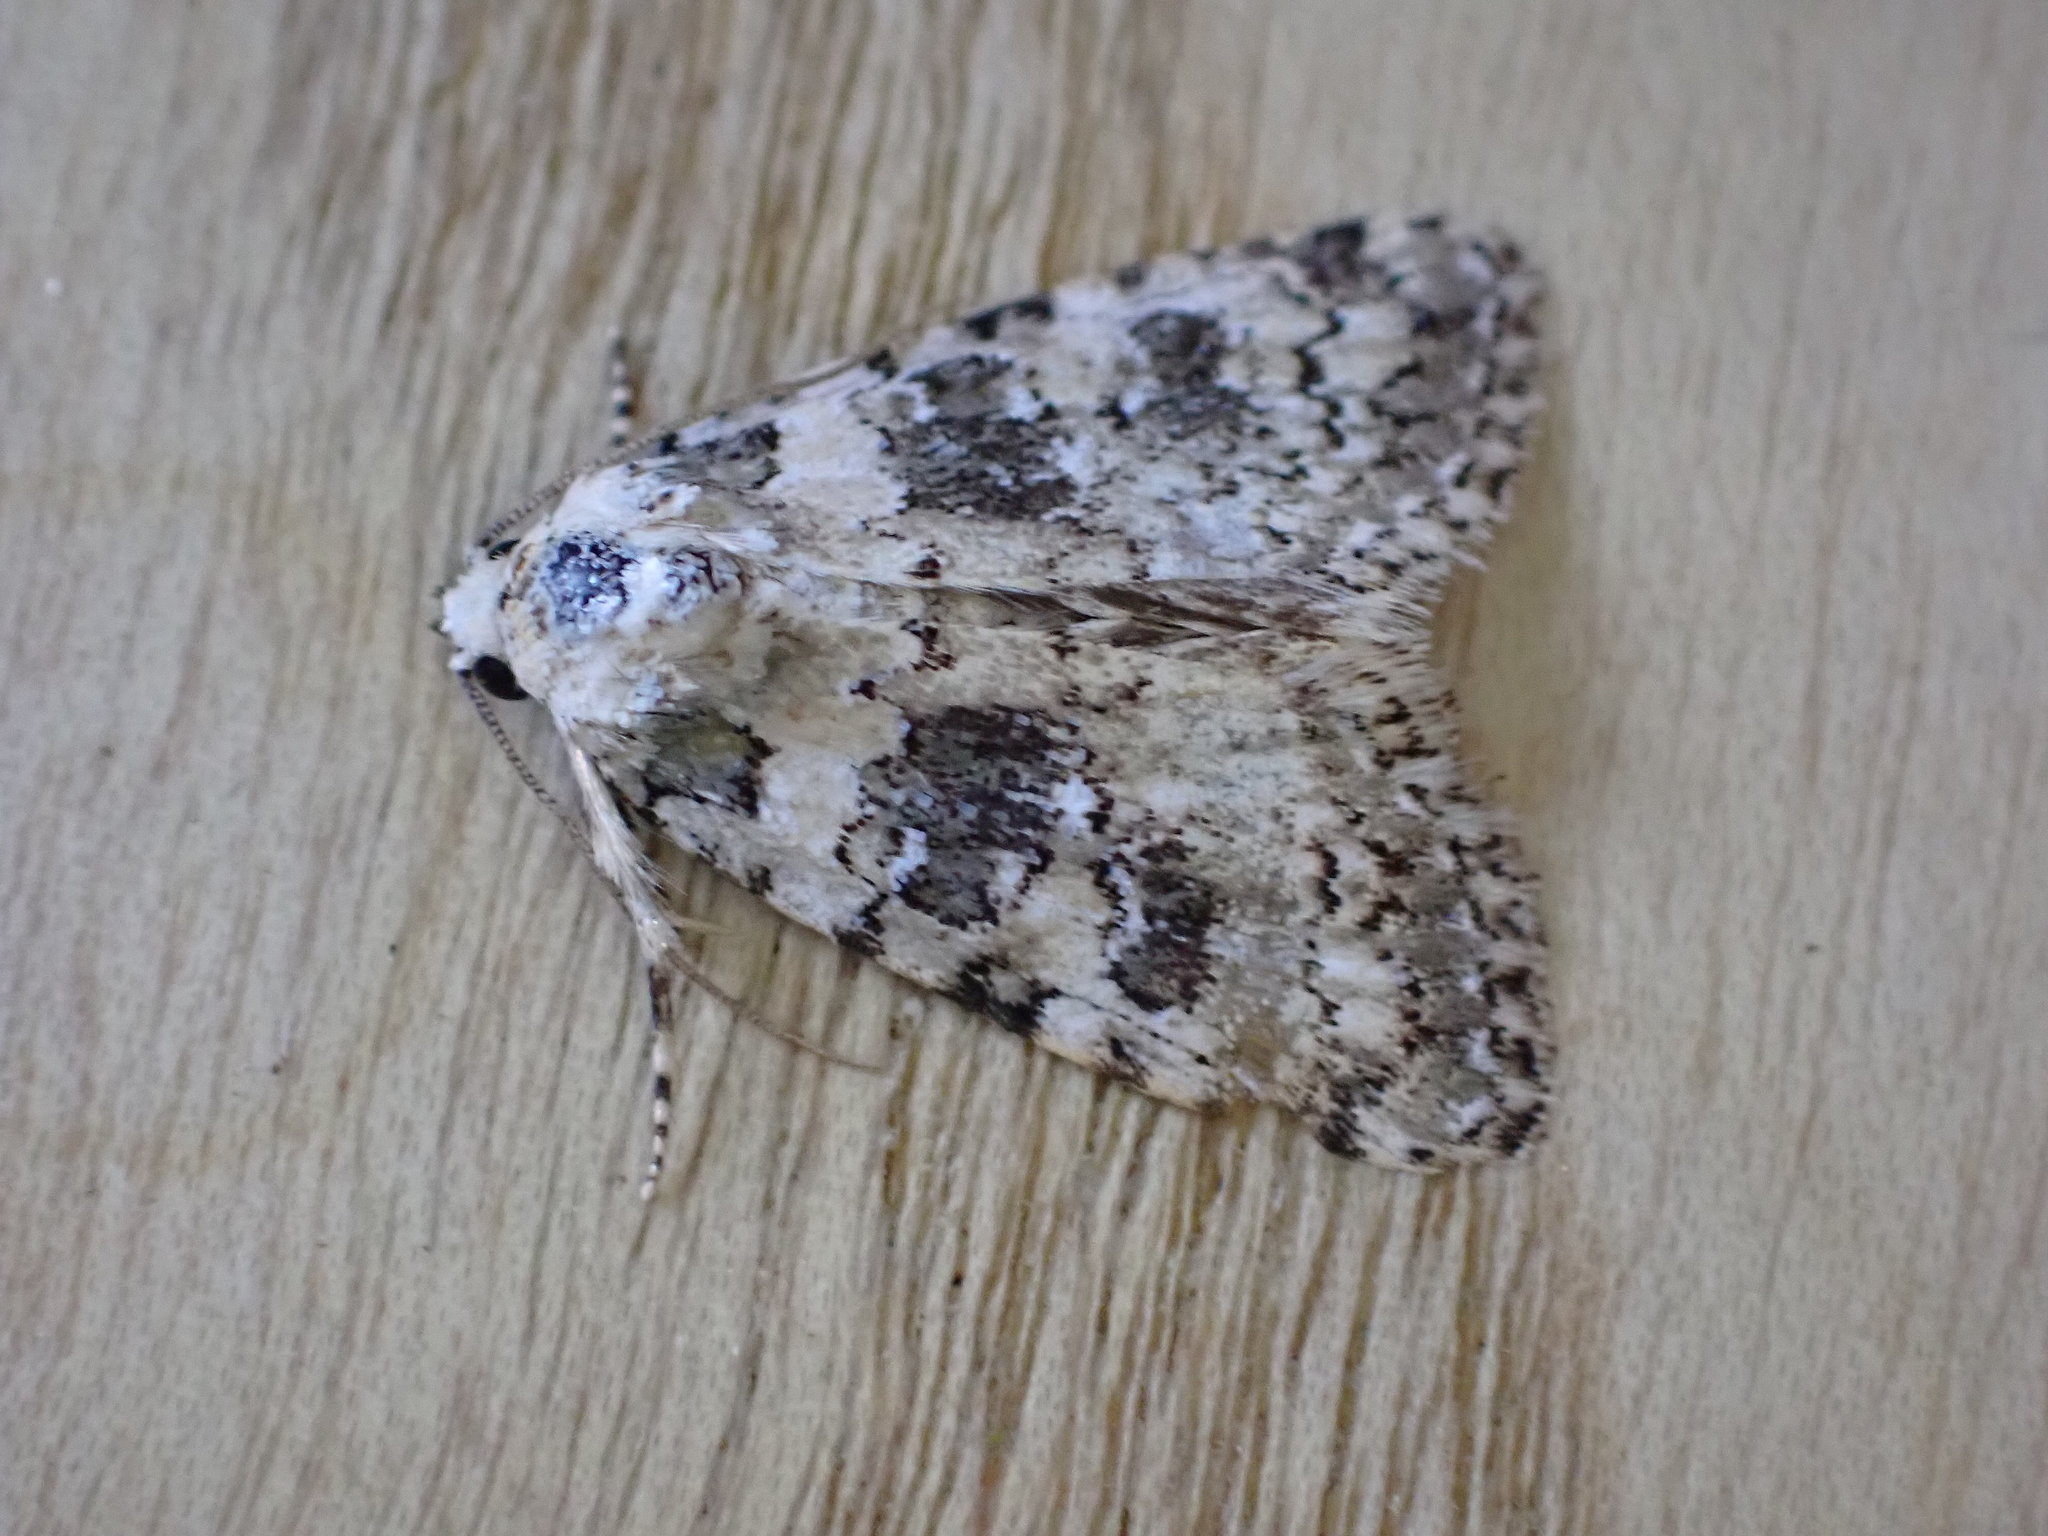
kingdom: Animalia
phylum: Arthropoda
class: Insecta
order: Lepidoptera
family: Noctuidae
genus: Bryophila
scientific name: Bryophila domestica
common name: Marbled beauty
